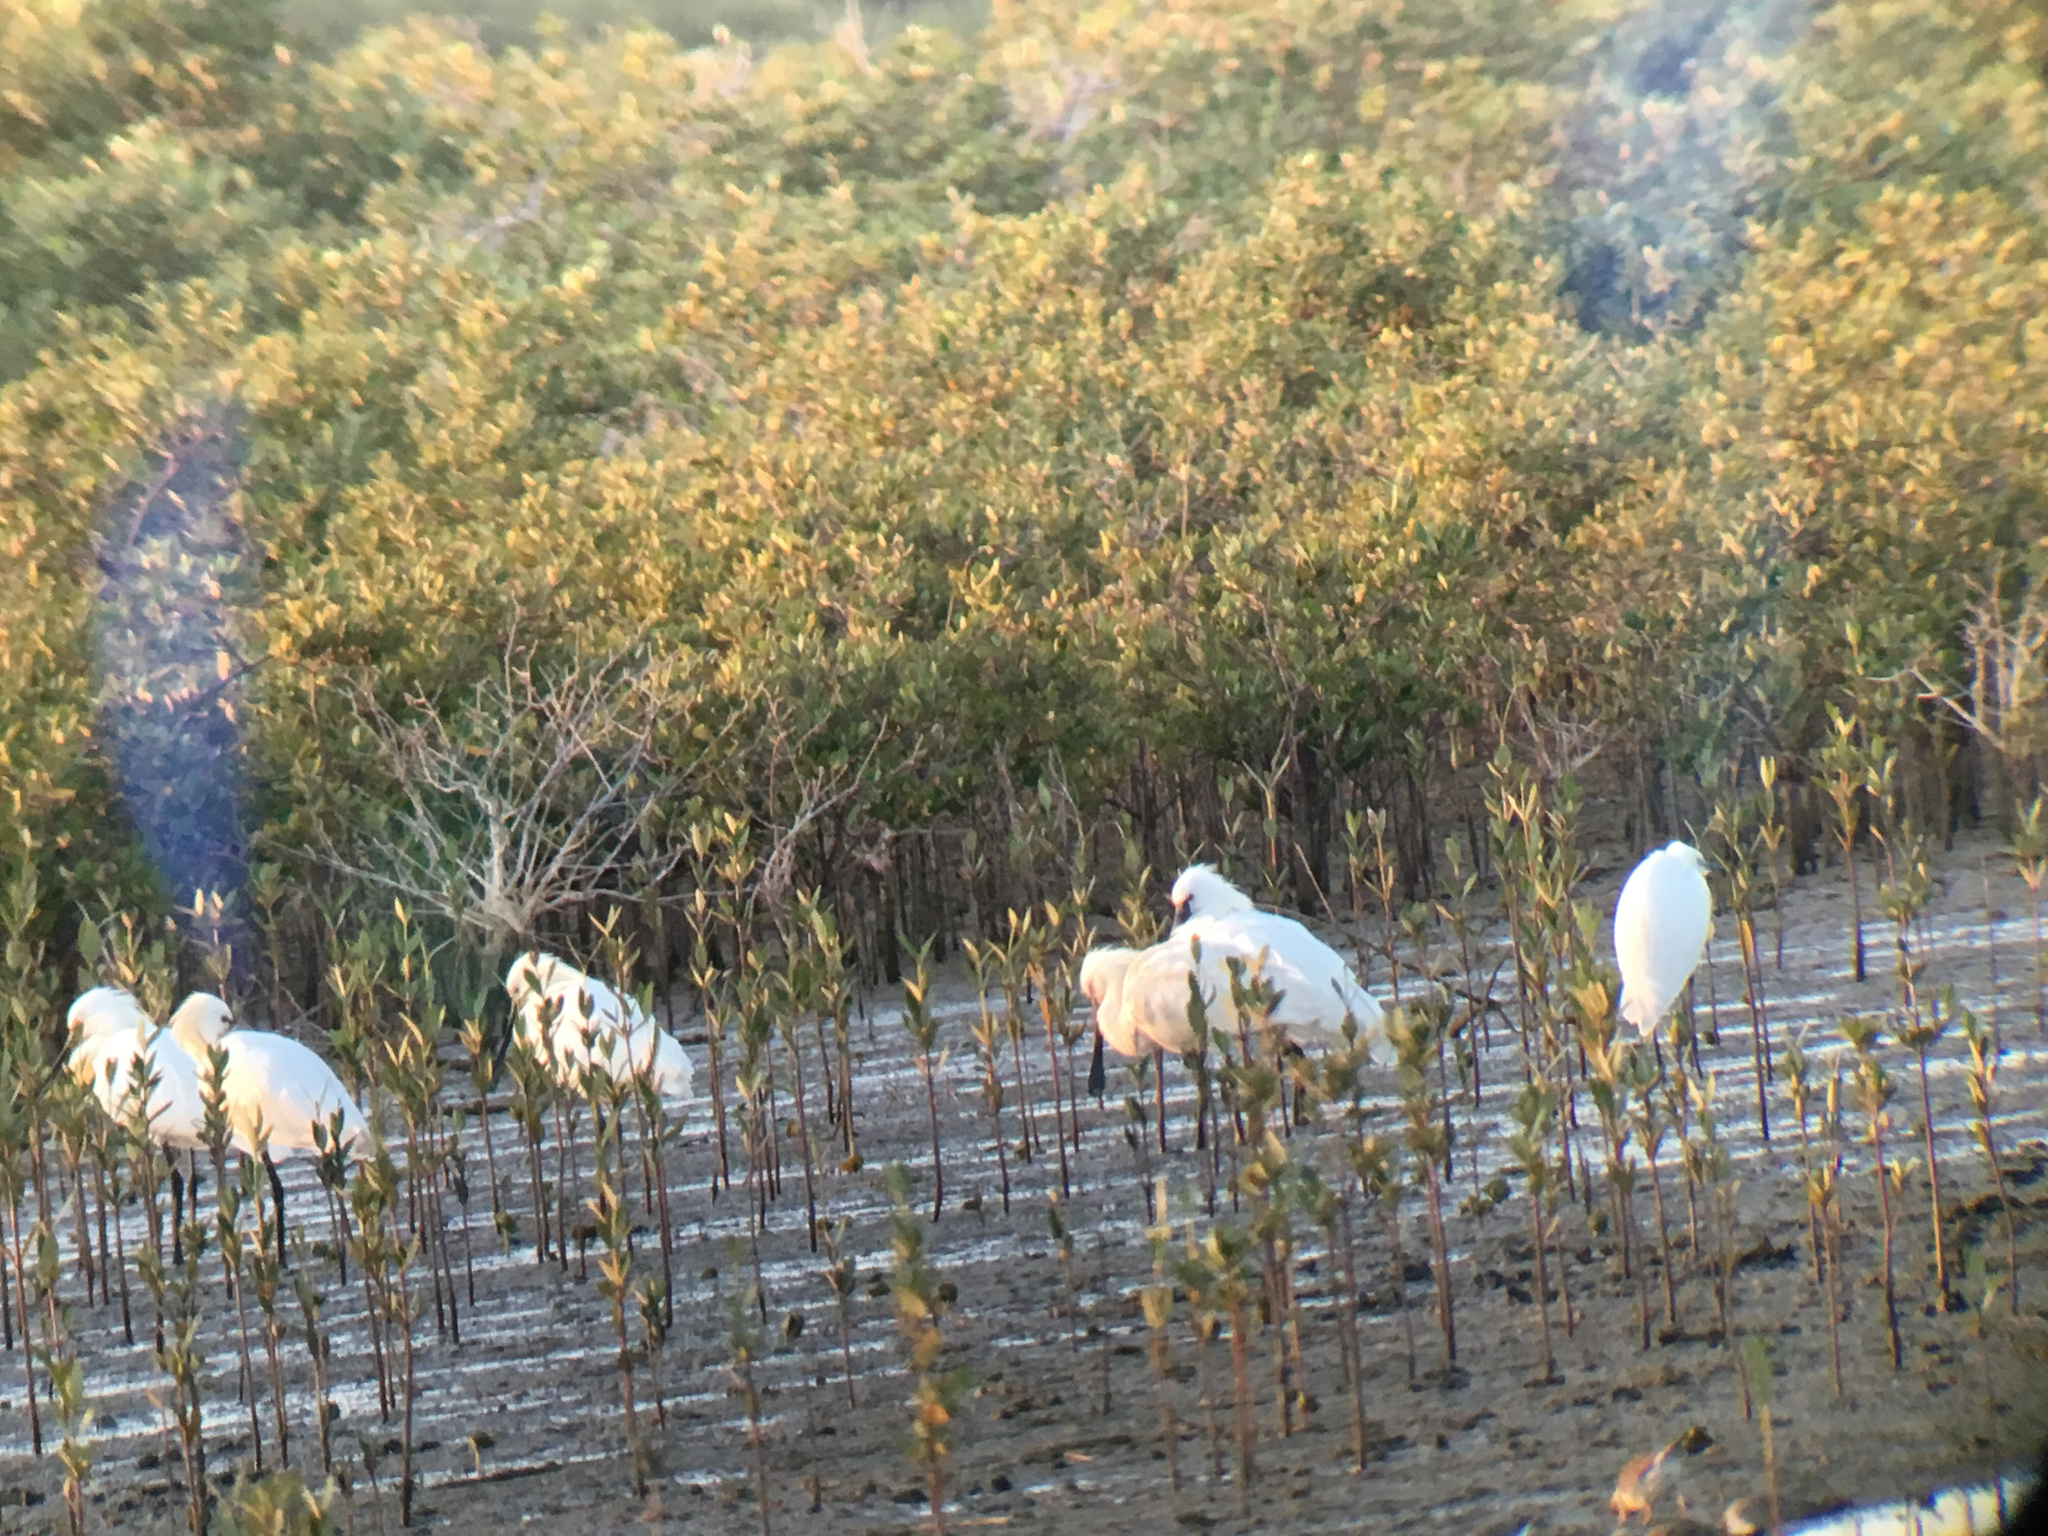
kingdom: Animalia
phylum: Chordata
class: Aves
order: Pelecaniformes
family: Threskiornithidae
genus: Platalea
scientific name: Platalea leucorodia
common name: Eurasian spoonbill
